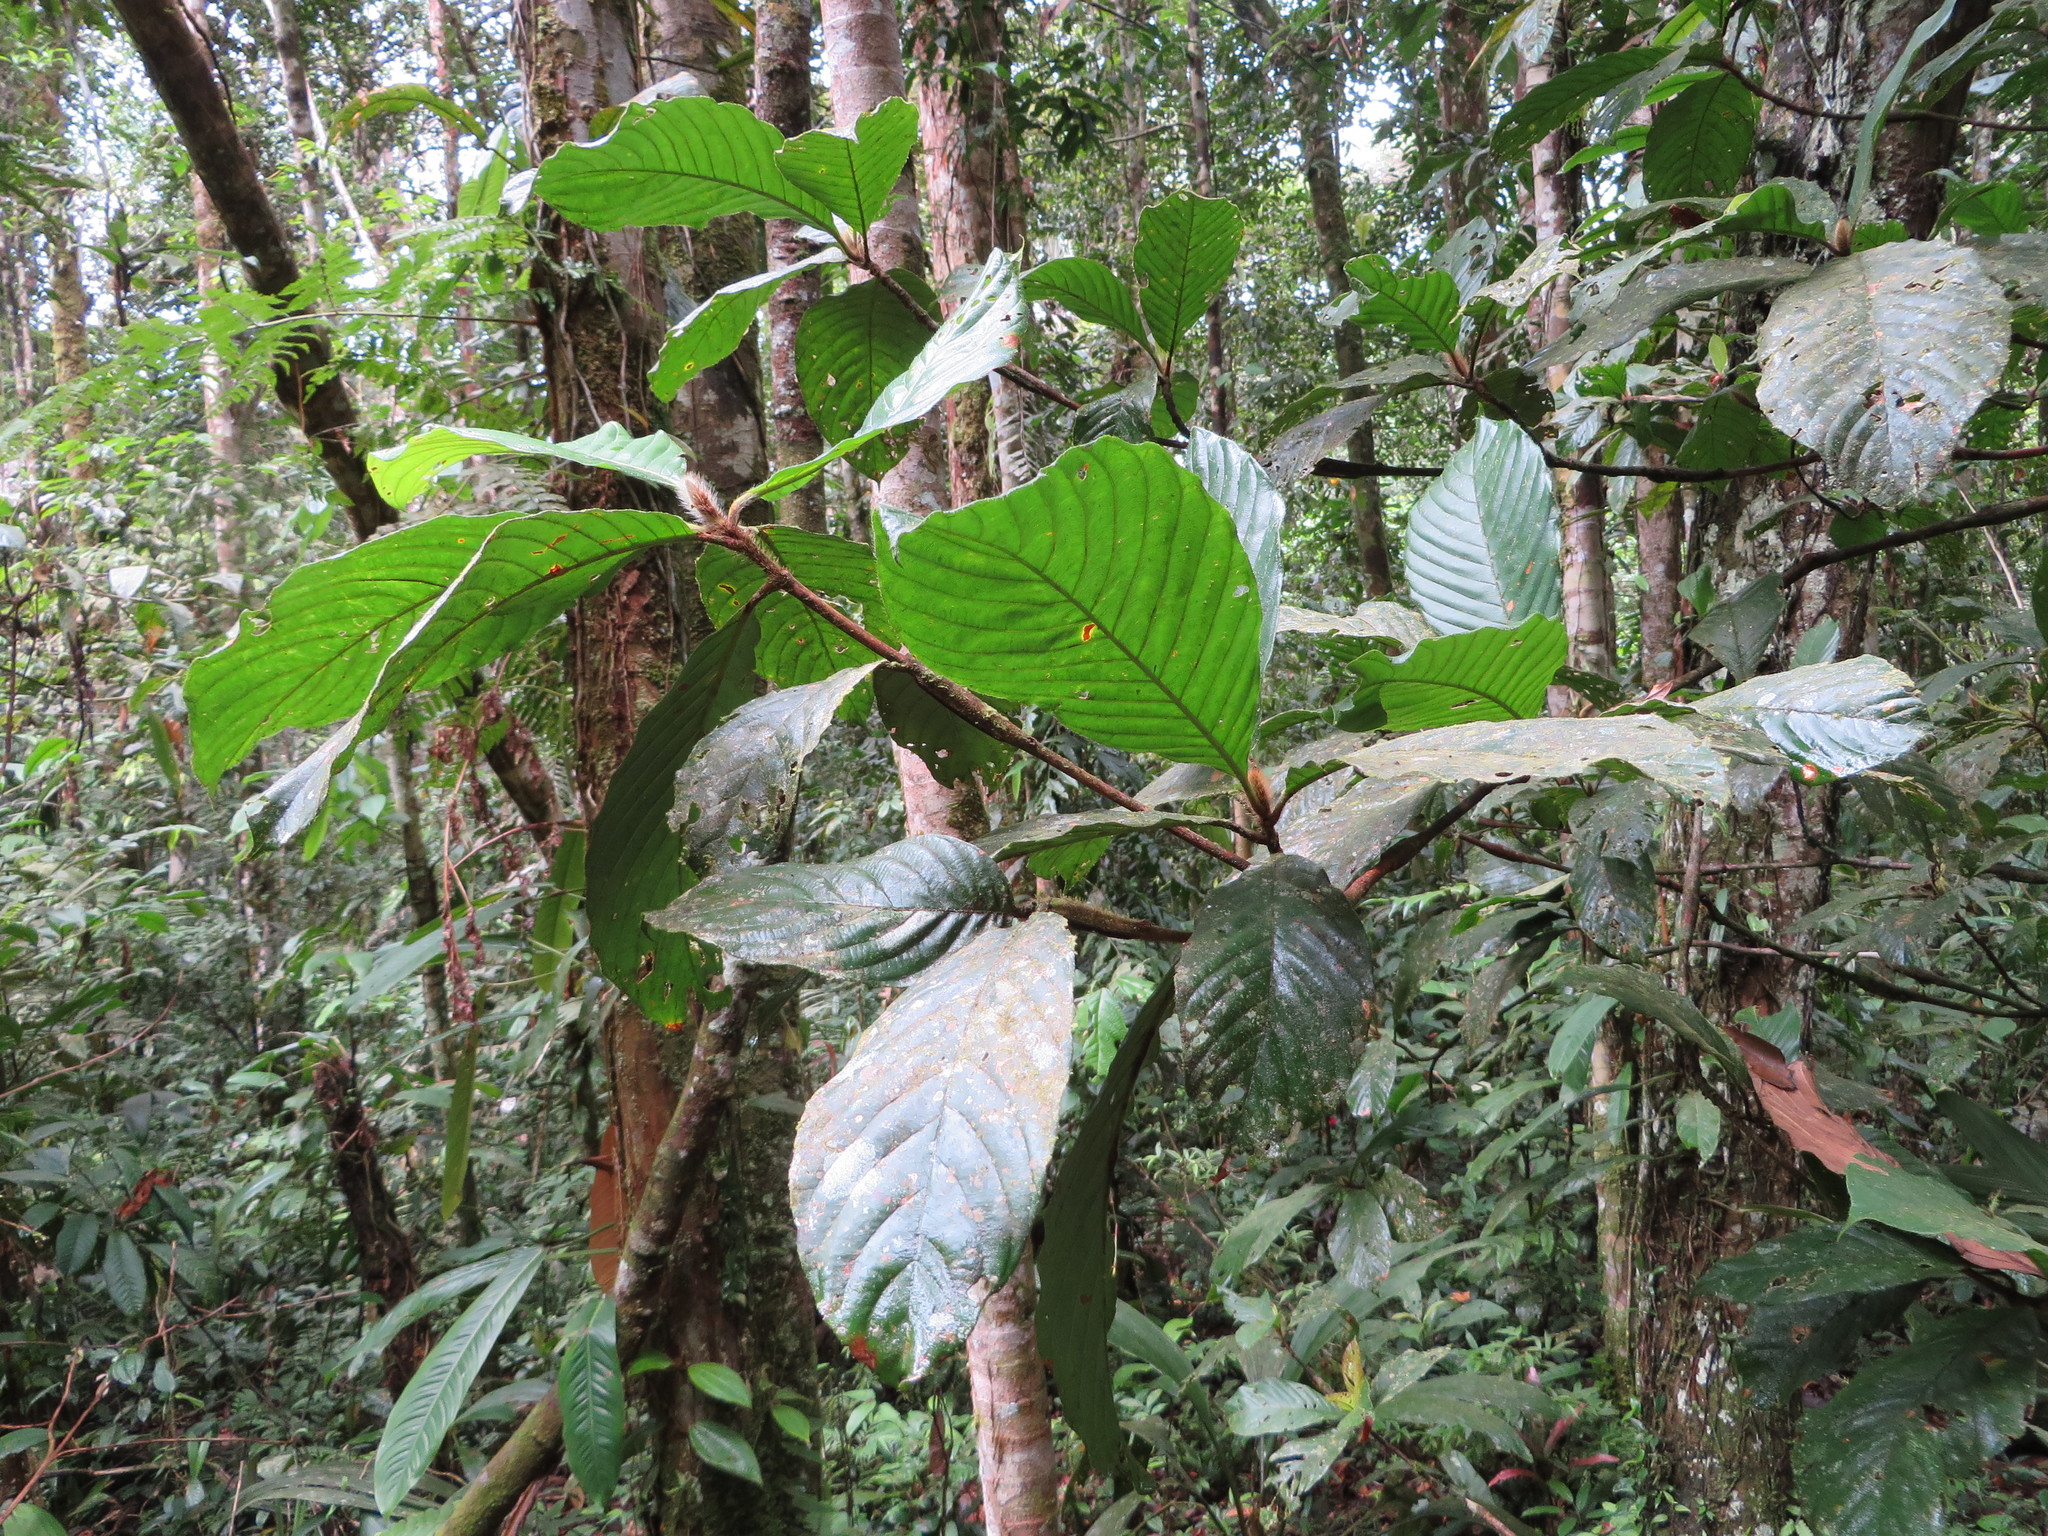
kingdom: Plantae
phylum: Tracheophyta
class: Magnoliopsida
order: Gentianales
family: Rubiaceae
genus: Duroia
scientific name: Duroia hirsuta
